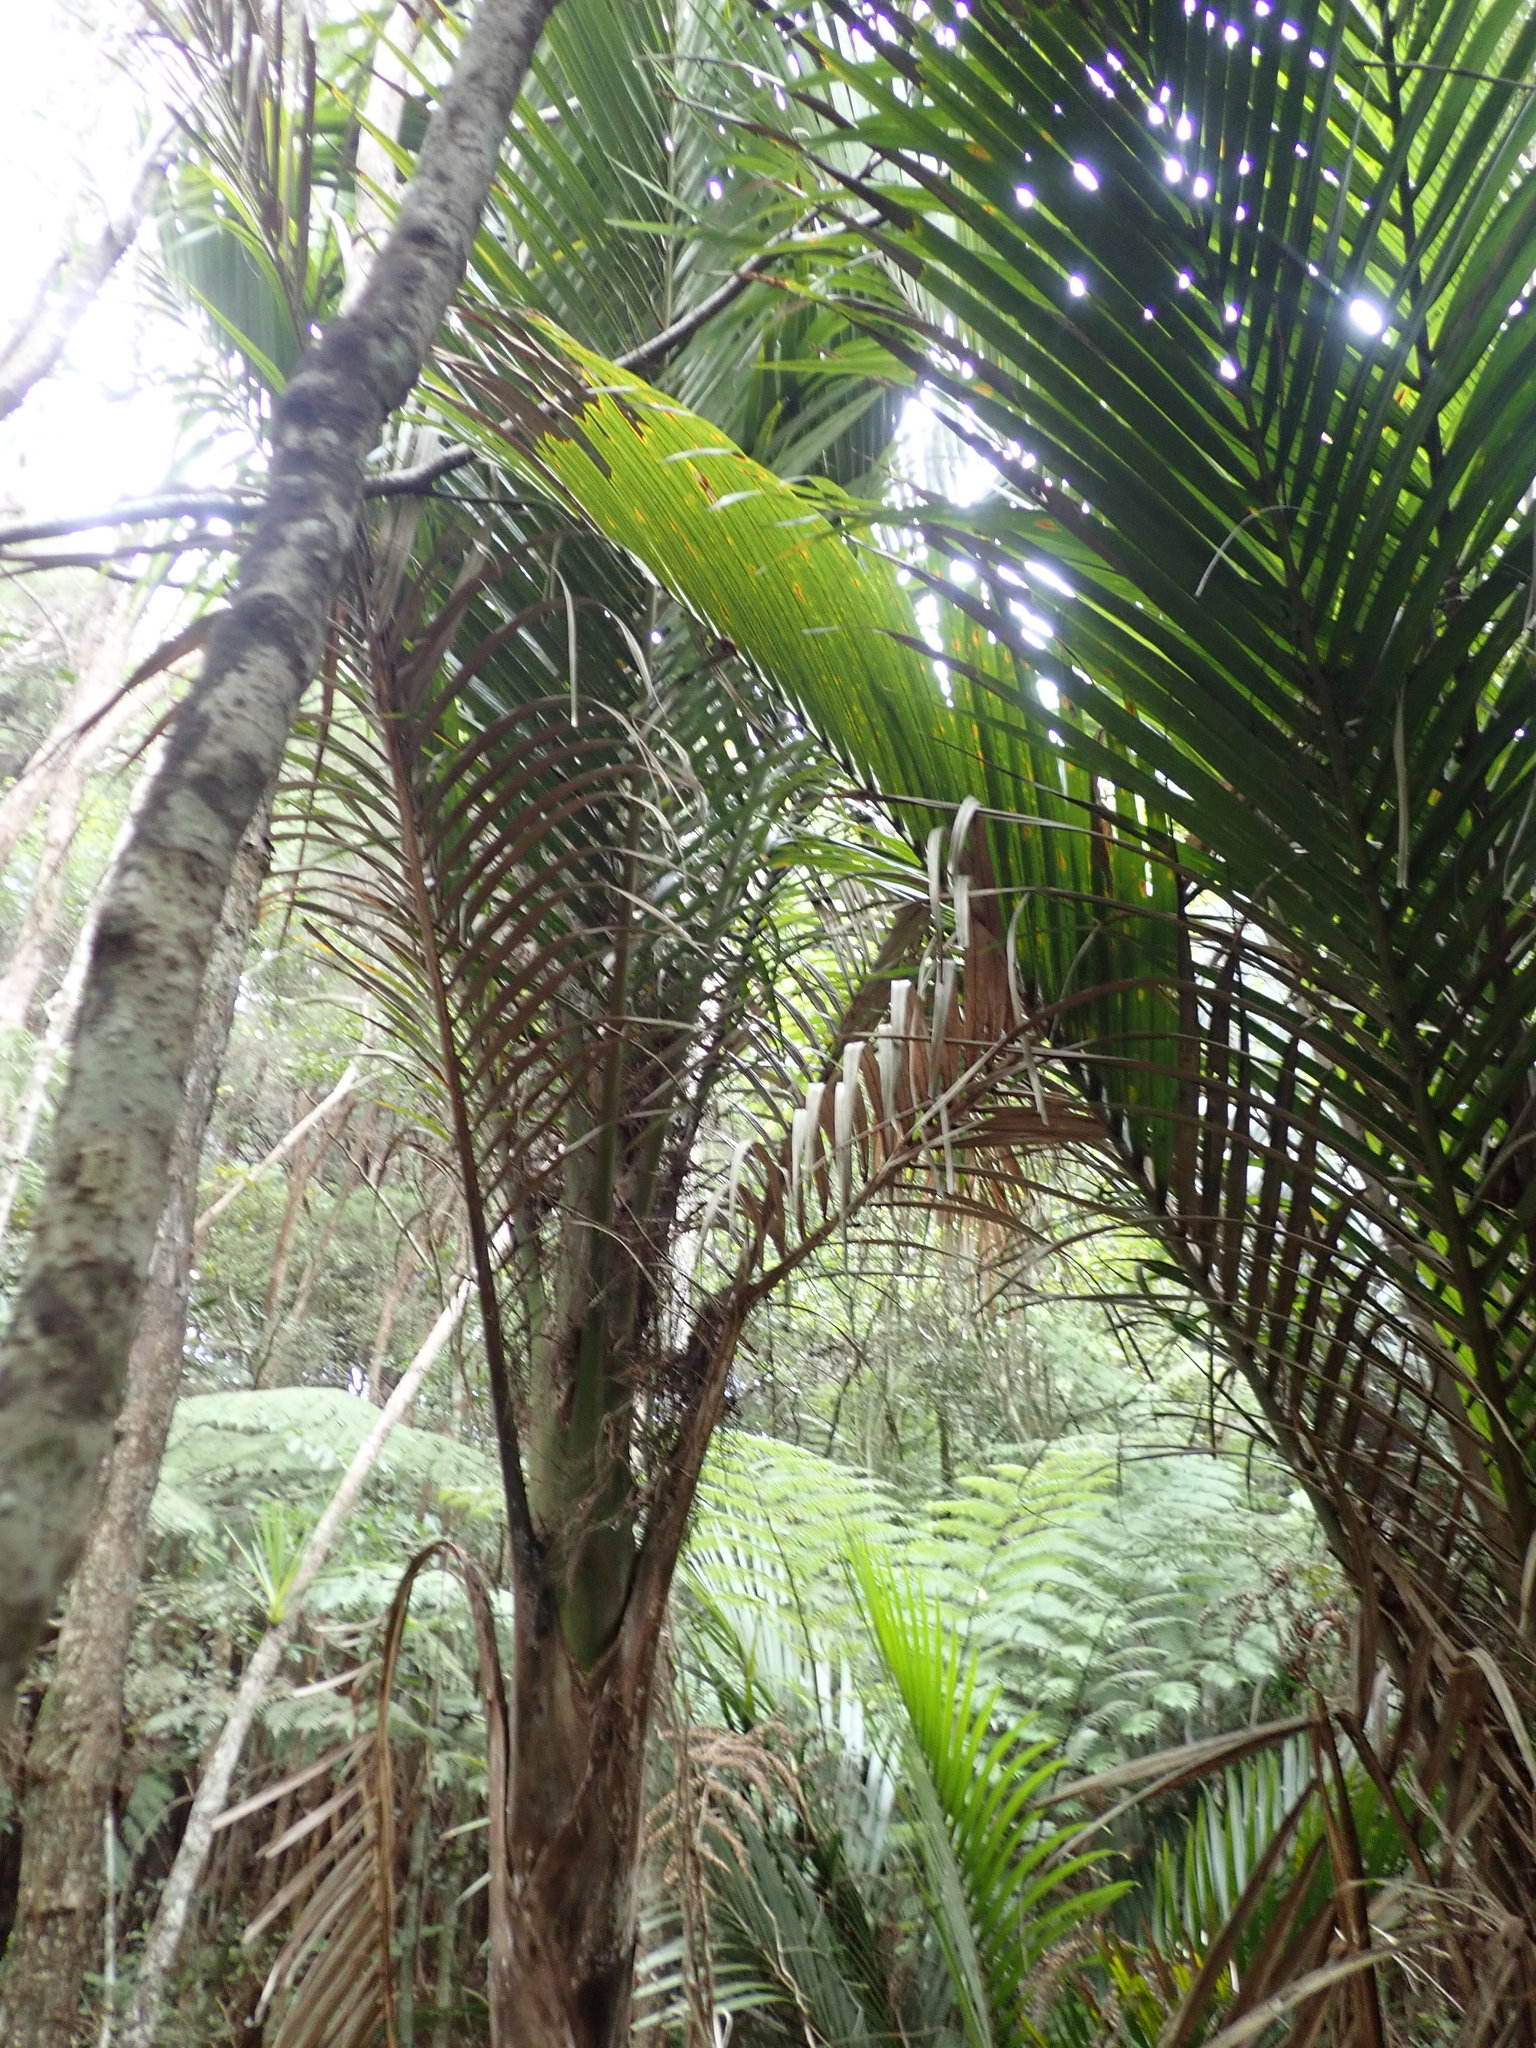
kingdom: Plantae
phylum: Tracheophyta
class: Liliopsida
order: Arecales
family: Arecaceae
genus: Rhopalostylis
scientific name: Rhopalostylis sapida
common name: Feather-duster palm
